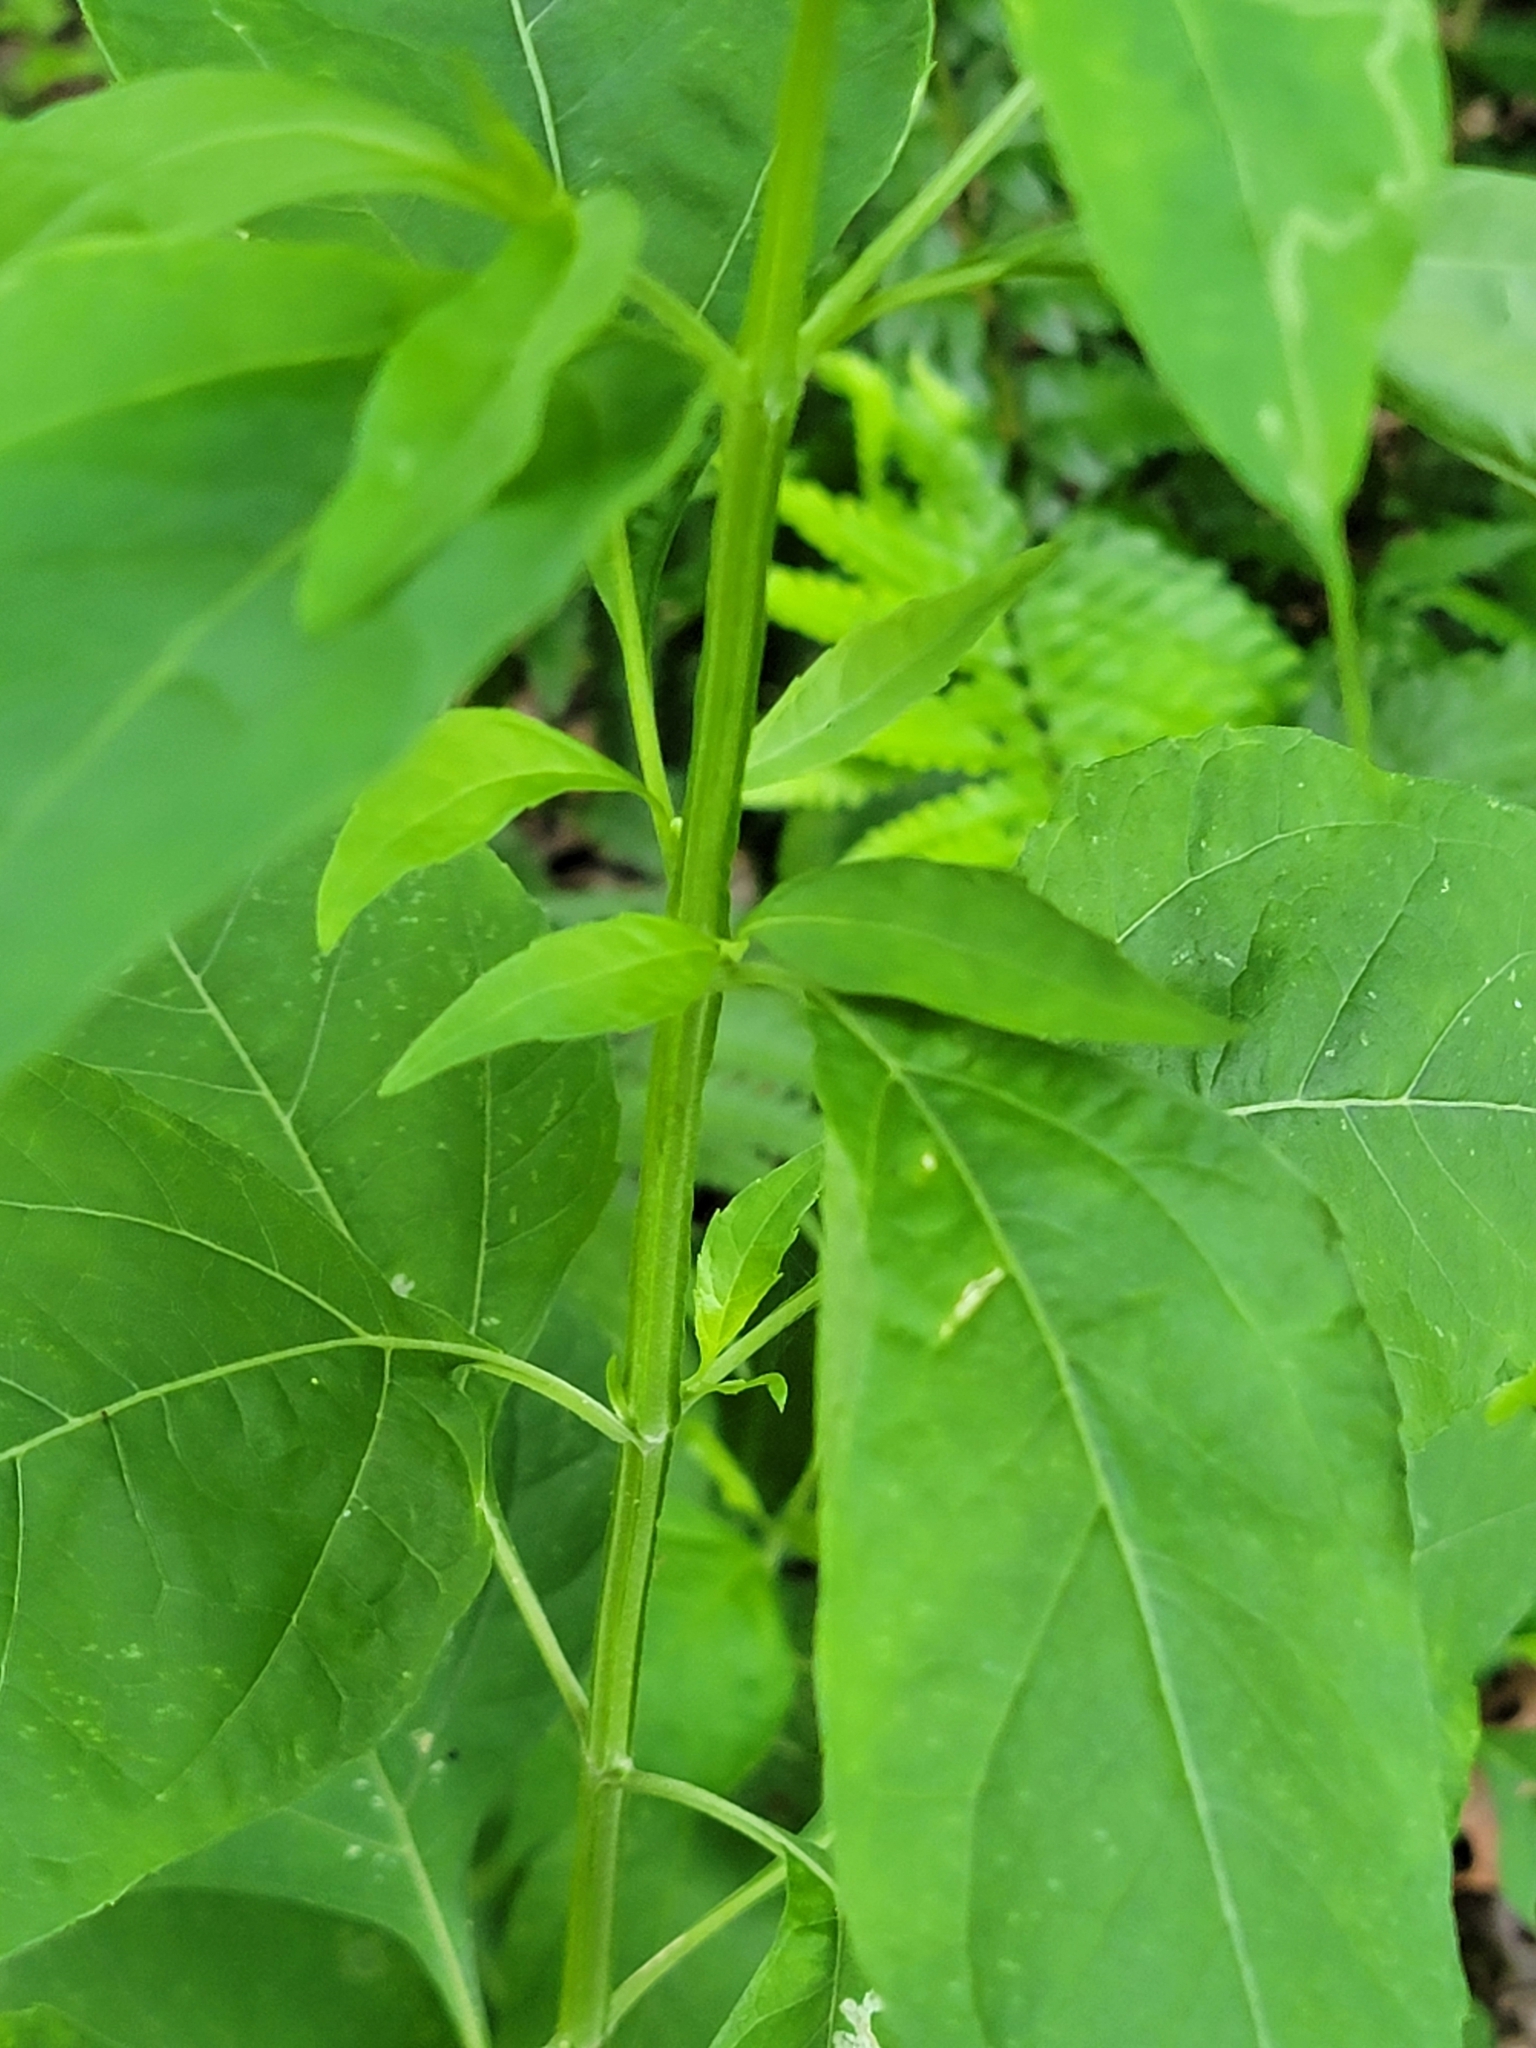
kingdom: Plantae
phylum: Tracheophyta
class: Magnoliopsida
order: Asterales
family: Asteraceae
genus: Verbesina
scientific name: Verbesina occidentalis
